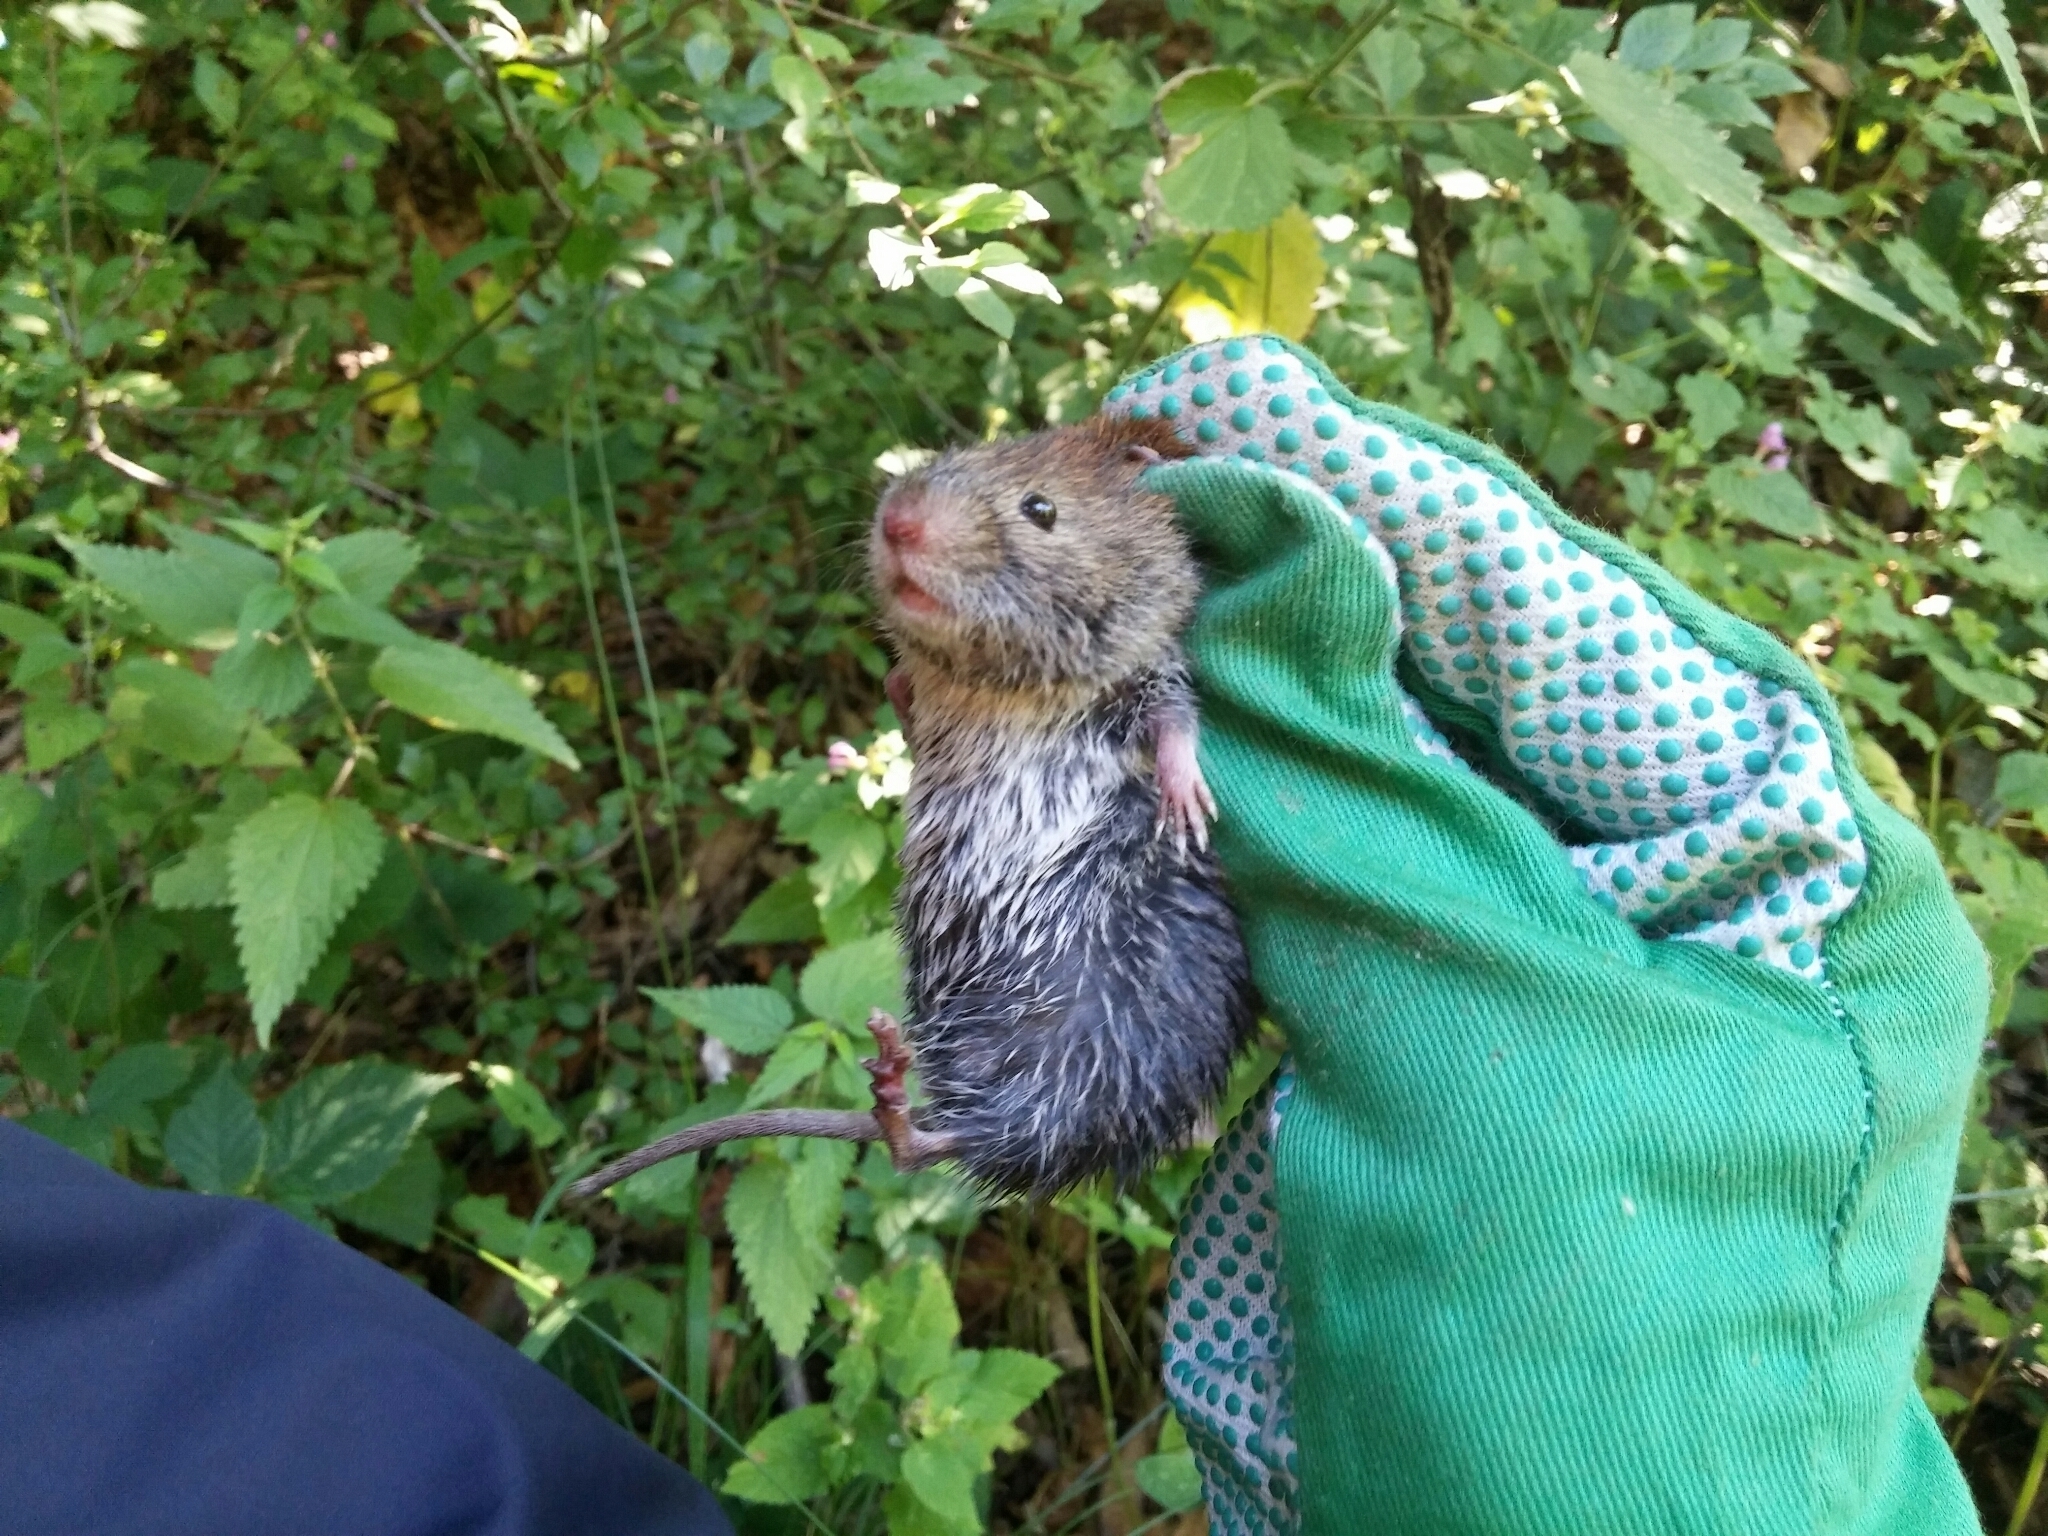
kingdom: Animalia
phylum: Chordata
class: Mammalia
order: Rodentia
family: Cricetidae
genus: Myodes
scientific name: Myodes glareolus
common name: Bank vole
